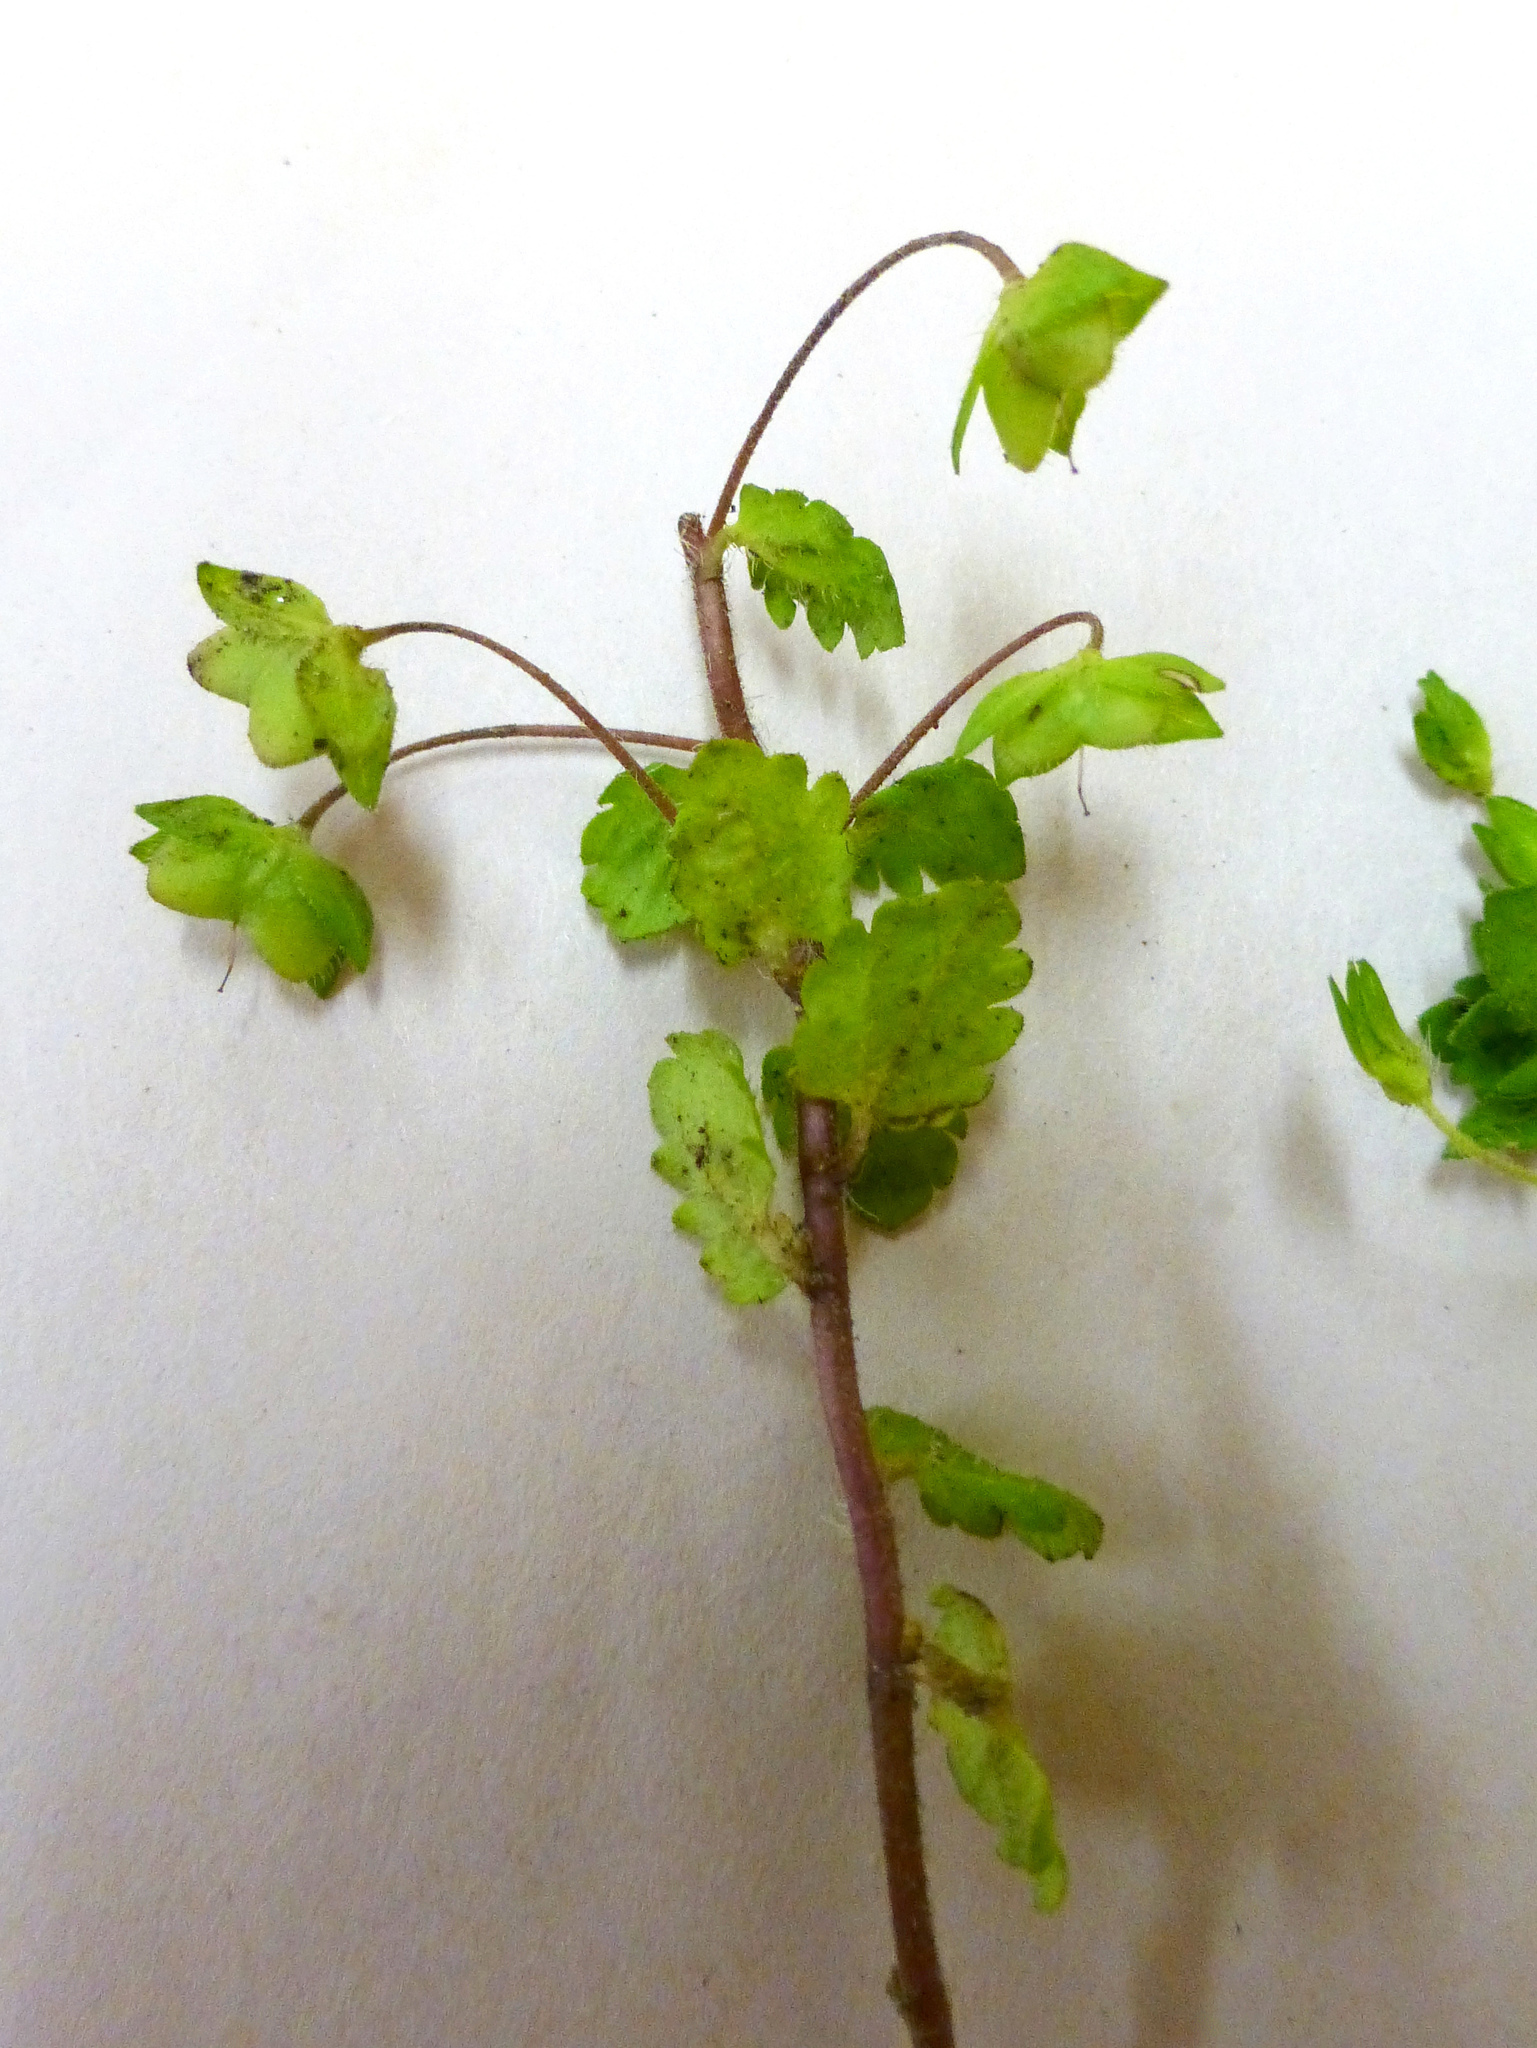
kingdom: Plantae
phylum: Tracheophyta
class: Magnoliopsida
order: Lamiales
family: Plantaginaceae
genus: Veronica
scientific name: Veronica persica
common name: Common field-speedwell
